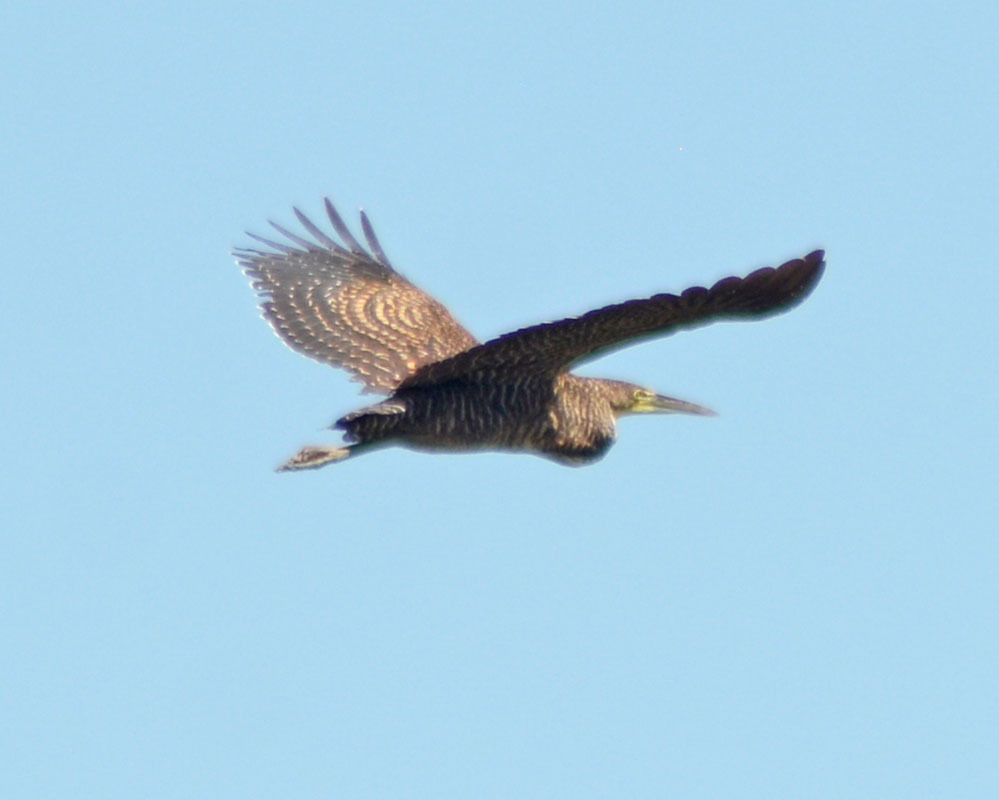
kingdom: Animalia
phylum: Chordata
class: Aves
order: Pelecaniformes
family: Ardeidae
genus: Tigrisoma
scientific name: Tigrisoma mexicanum
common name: Bare-throated tiger-heron
